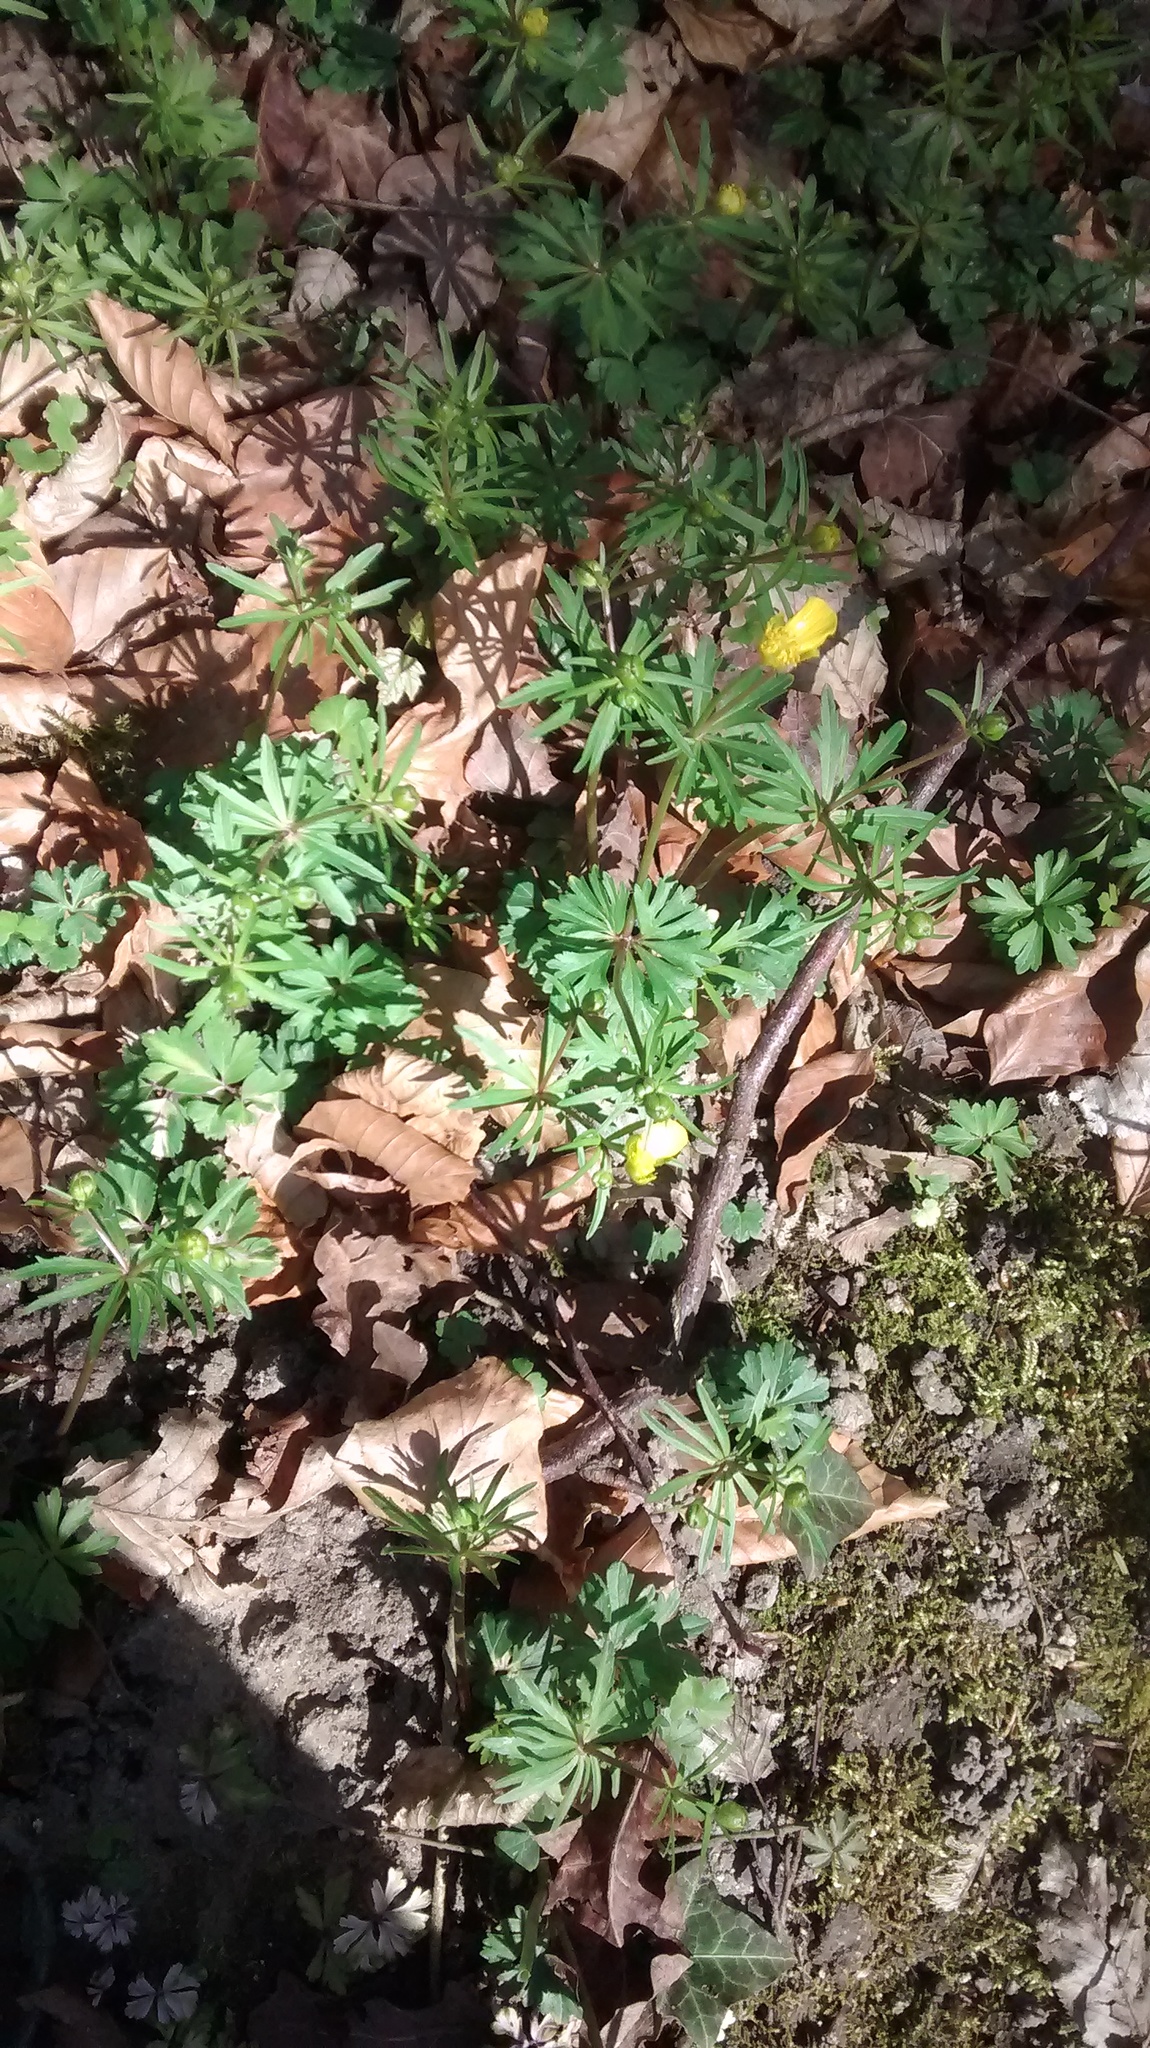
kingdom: Plantae
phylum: Tracheophyta
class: Magnoliopsida
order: Ranunculales
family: Ranunculaceae
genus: Ranunculus
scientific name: Ranunculus auricomus
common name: Goldilocks buttercup
